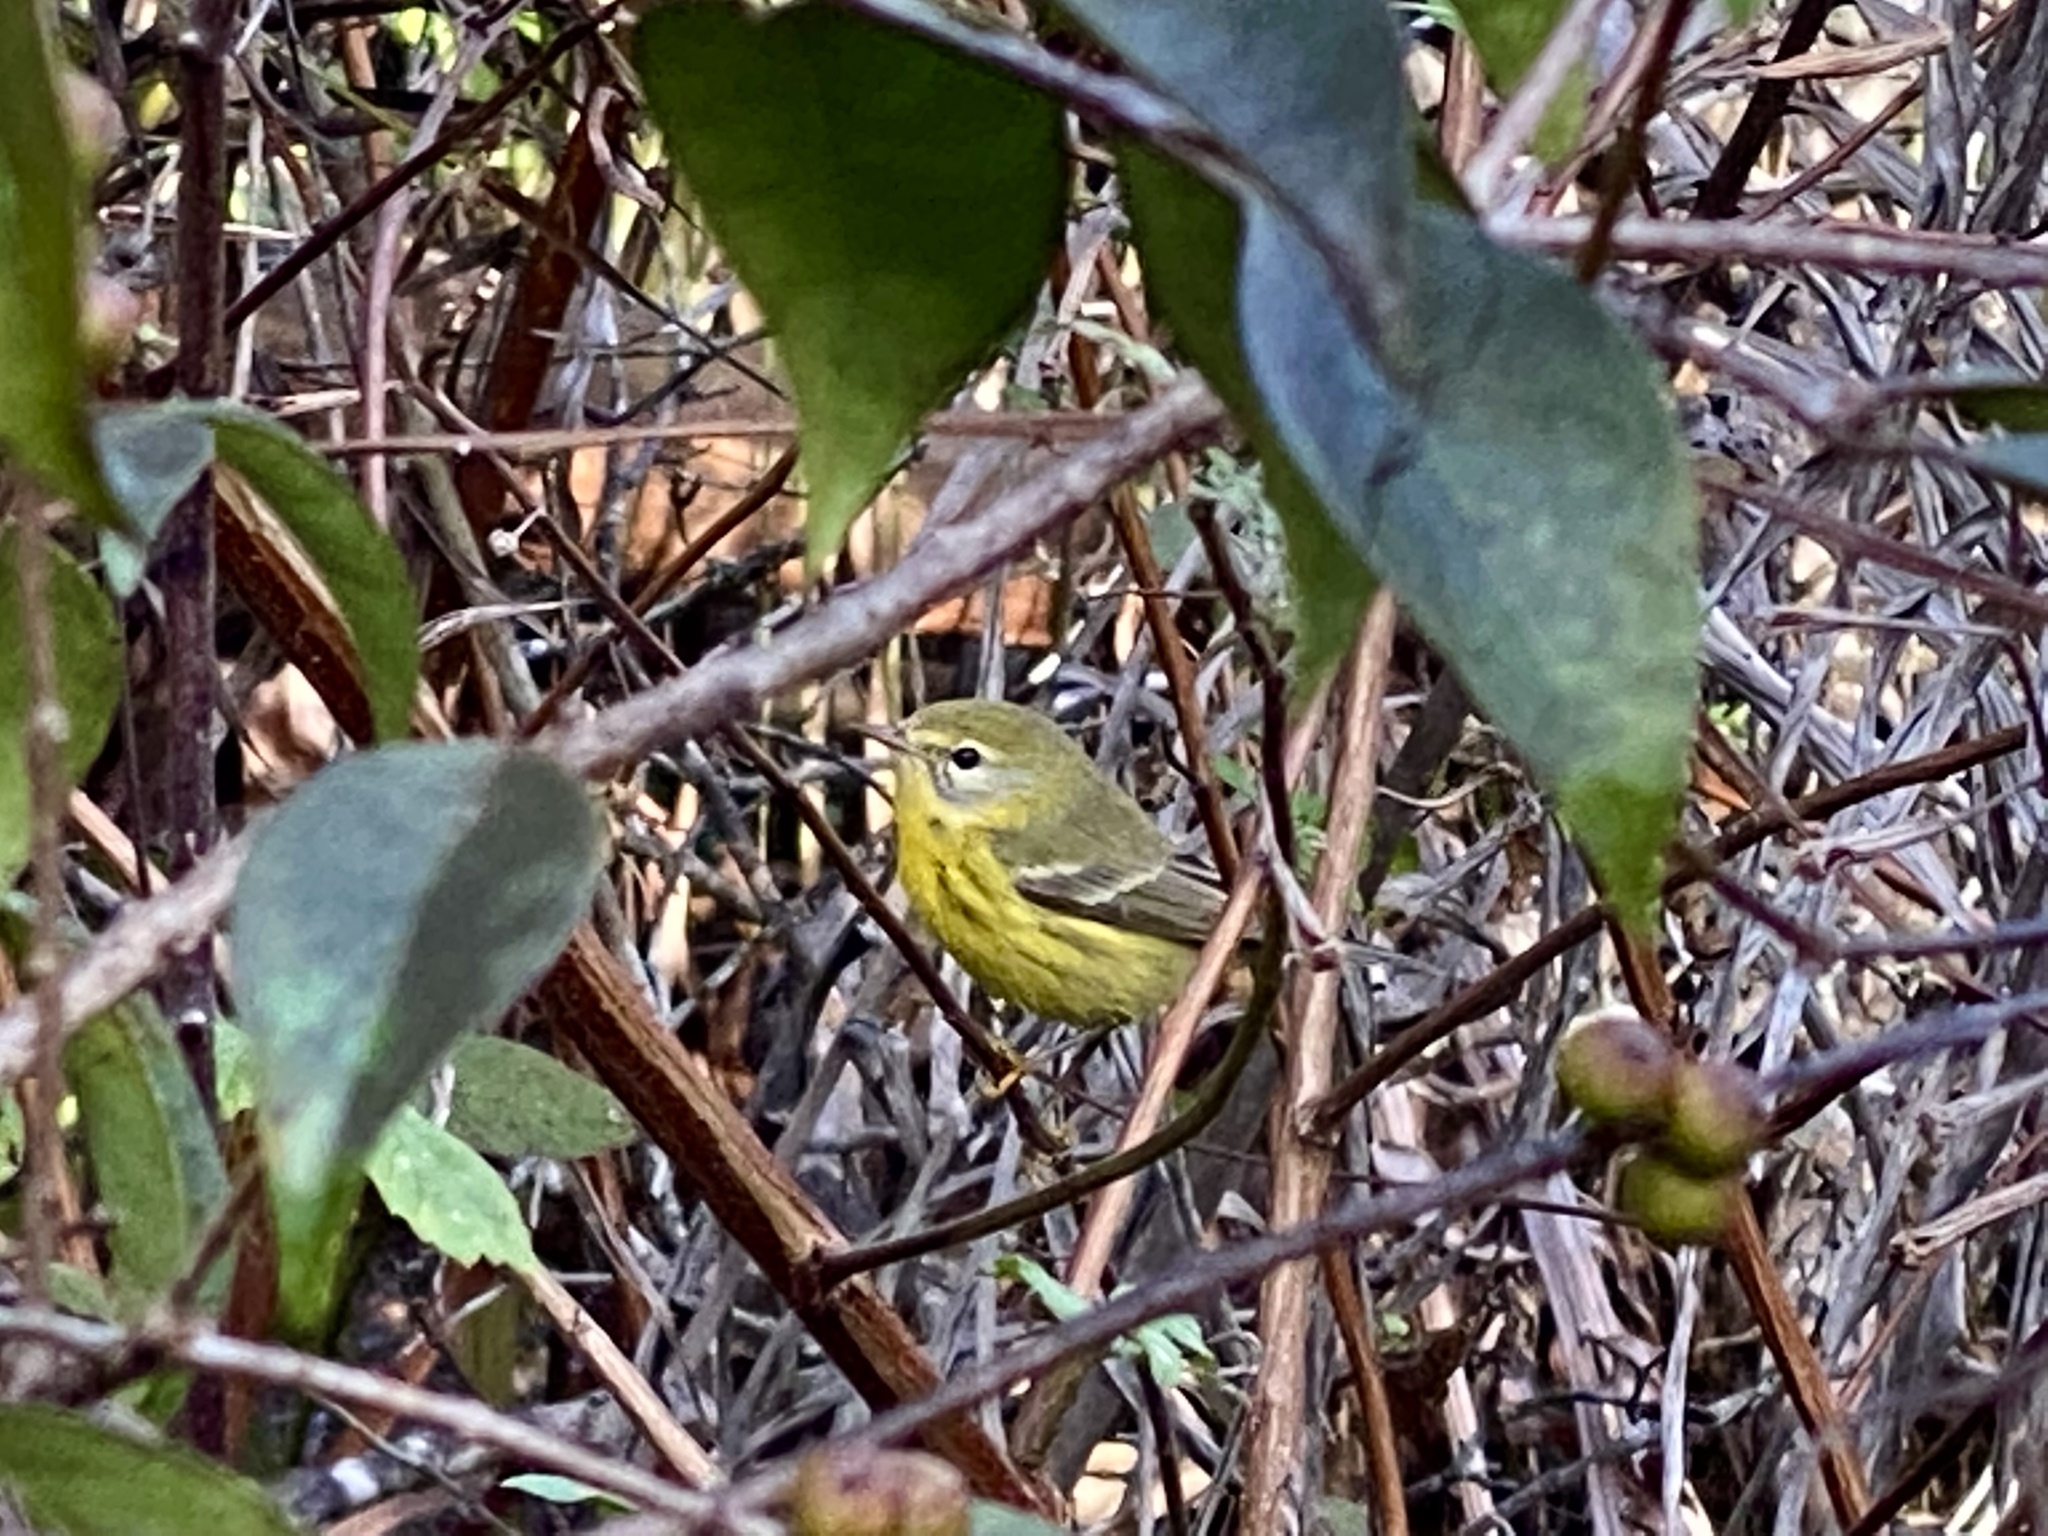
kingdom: Animalia
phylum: Chordata
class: Aves
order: Passeriformes
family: Parulidae
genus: Setophaga
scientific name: Setophaga discolor
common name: Prairie warbler
